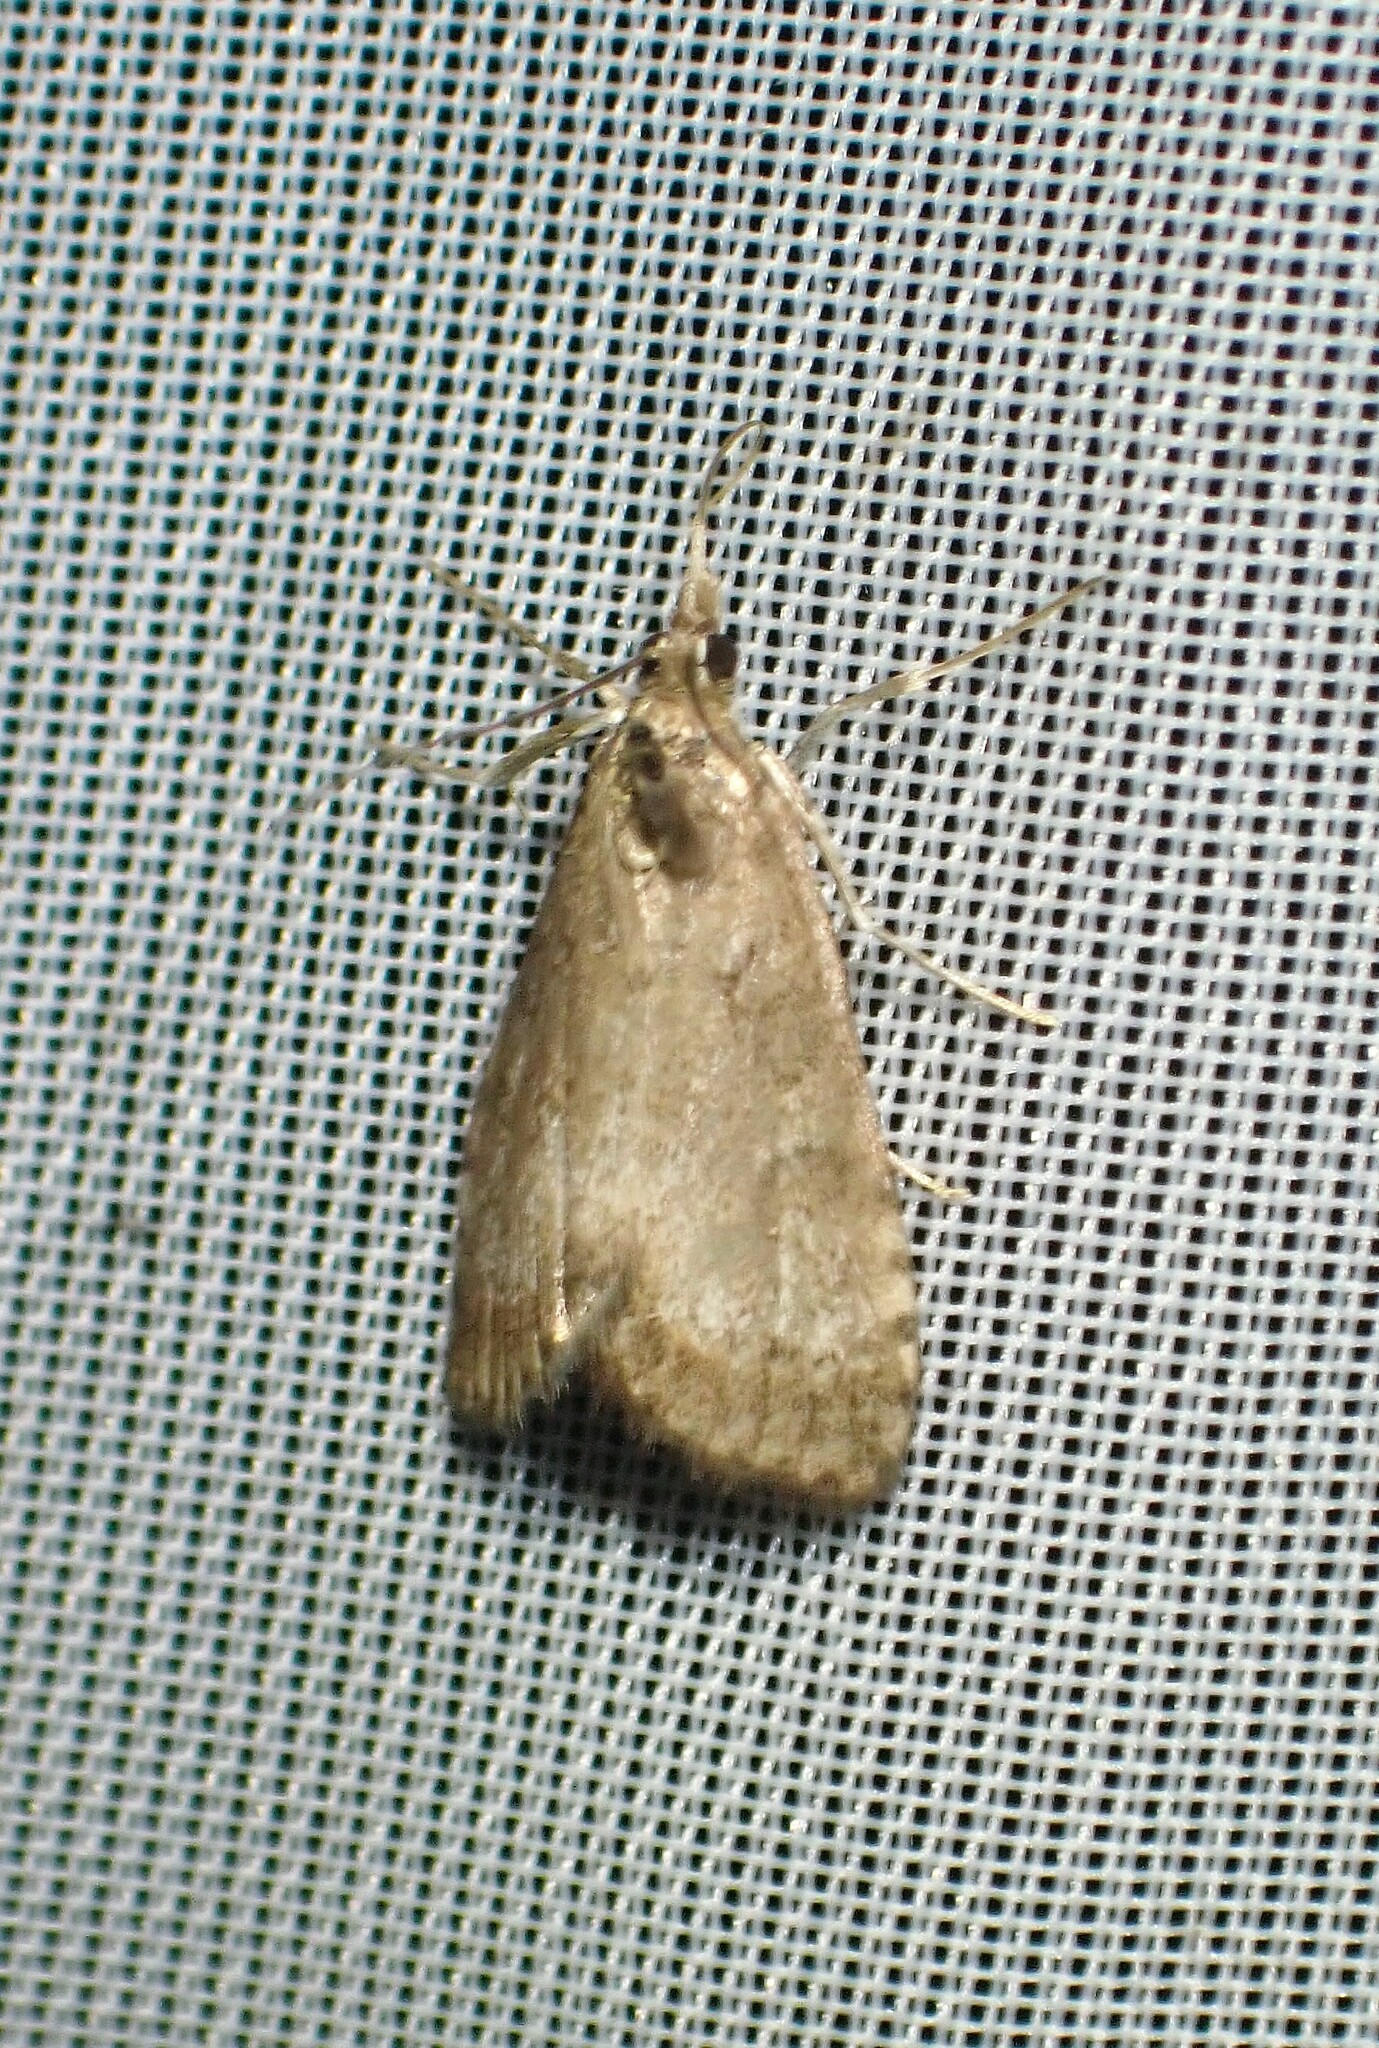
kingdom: Animalia
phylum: Arthropoda
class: Insecta
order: Lepidoptera
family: Crambidae
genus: Udea
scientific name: Udea inquinatalis
